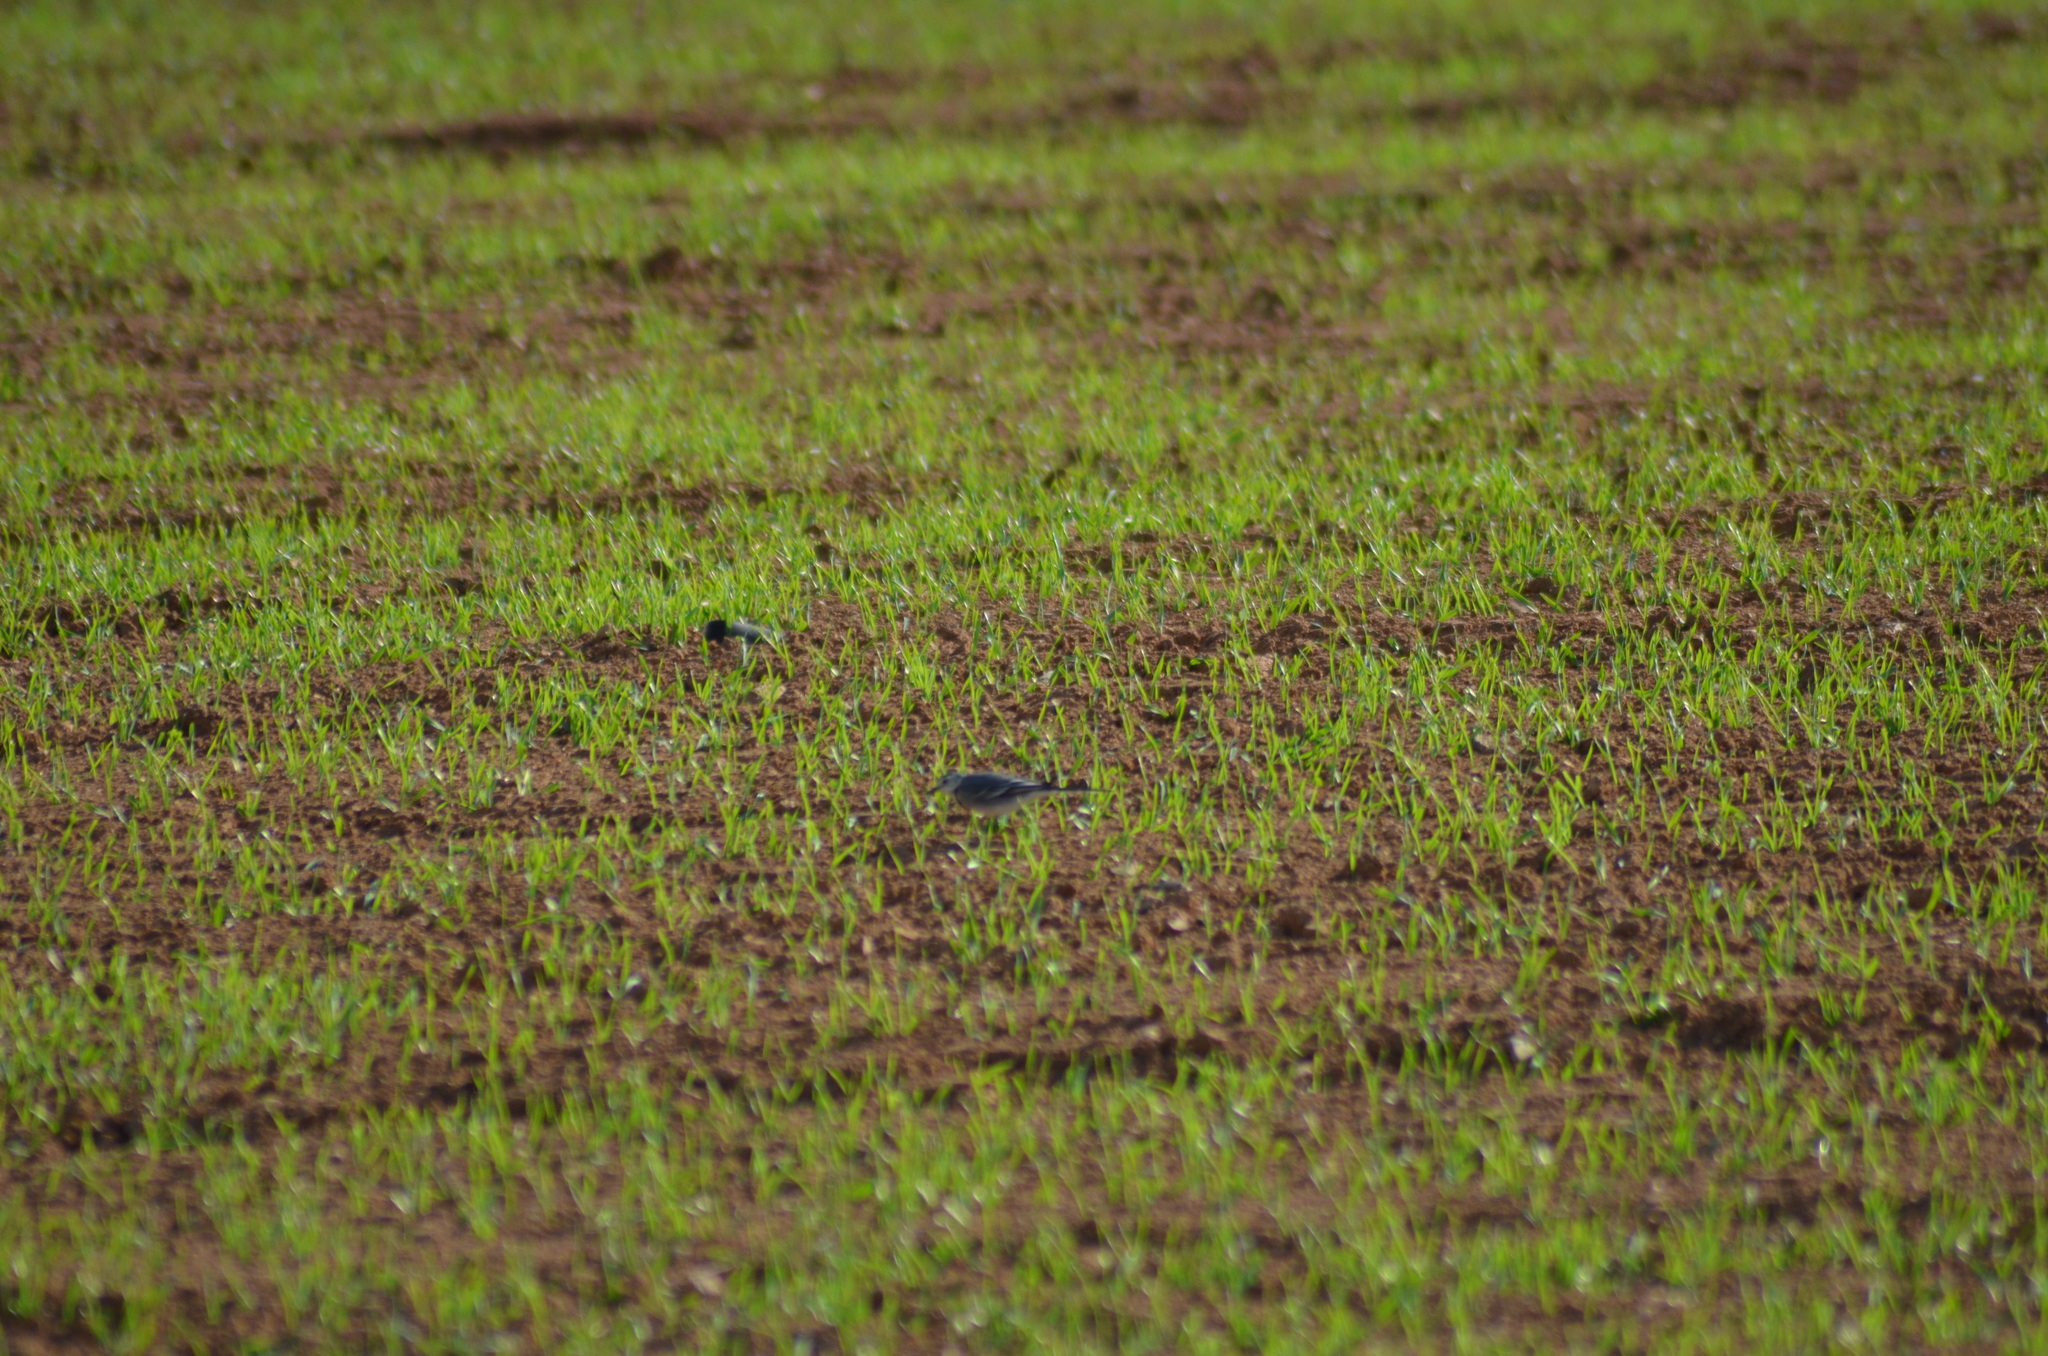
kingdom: Animalia
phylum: Chordata
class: Aves
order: Passeriformes
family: Motacillidae
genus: Motacilla
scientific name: Motacilla alba
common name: White wagtail
